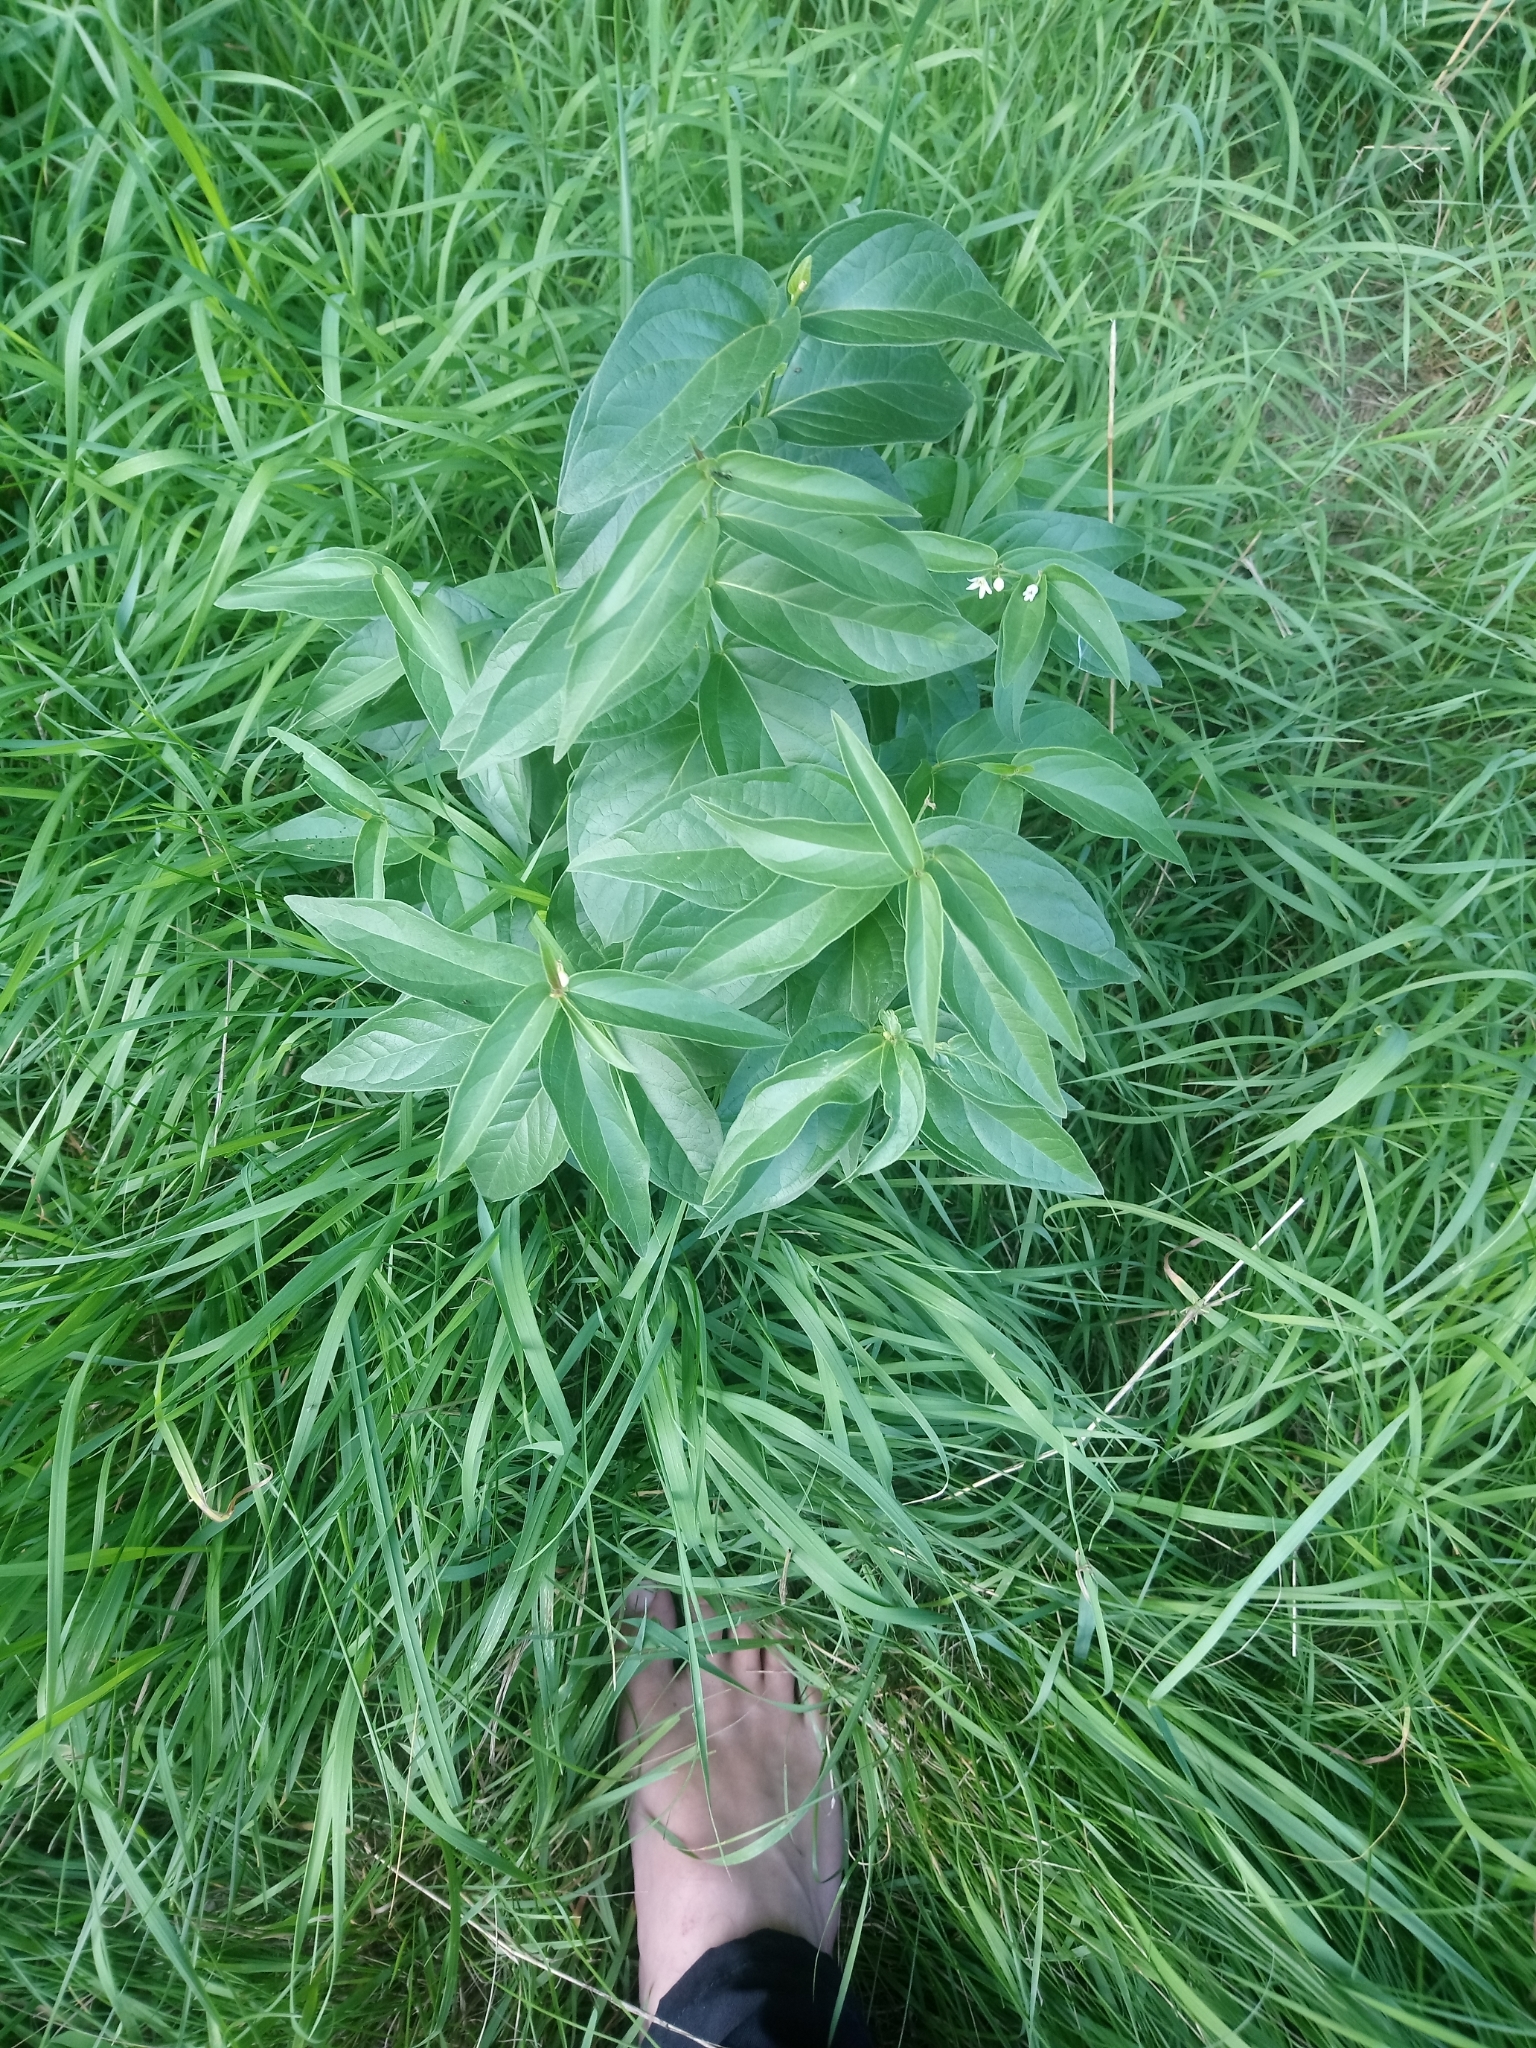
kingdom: Plantae
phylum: Tracheophyta
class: Magnoliopsida
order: Gentianales
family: Apocynaceae
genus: Vincetoxicum
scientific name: Vincetoxicum hirundinaria
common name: White swallowwort
